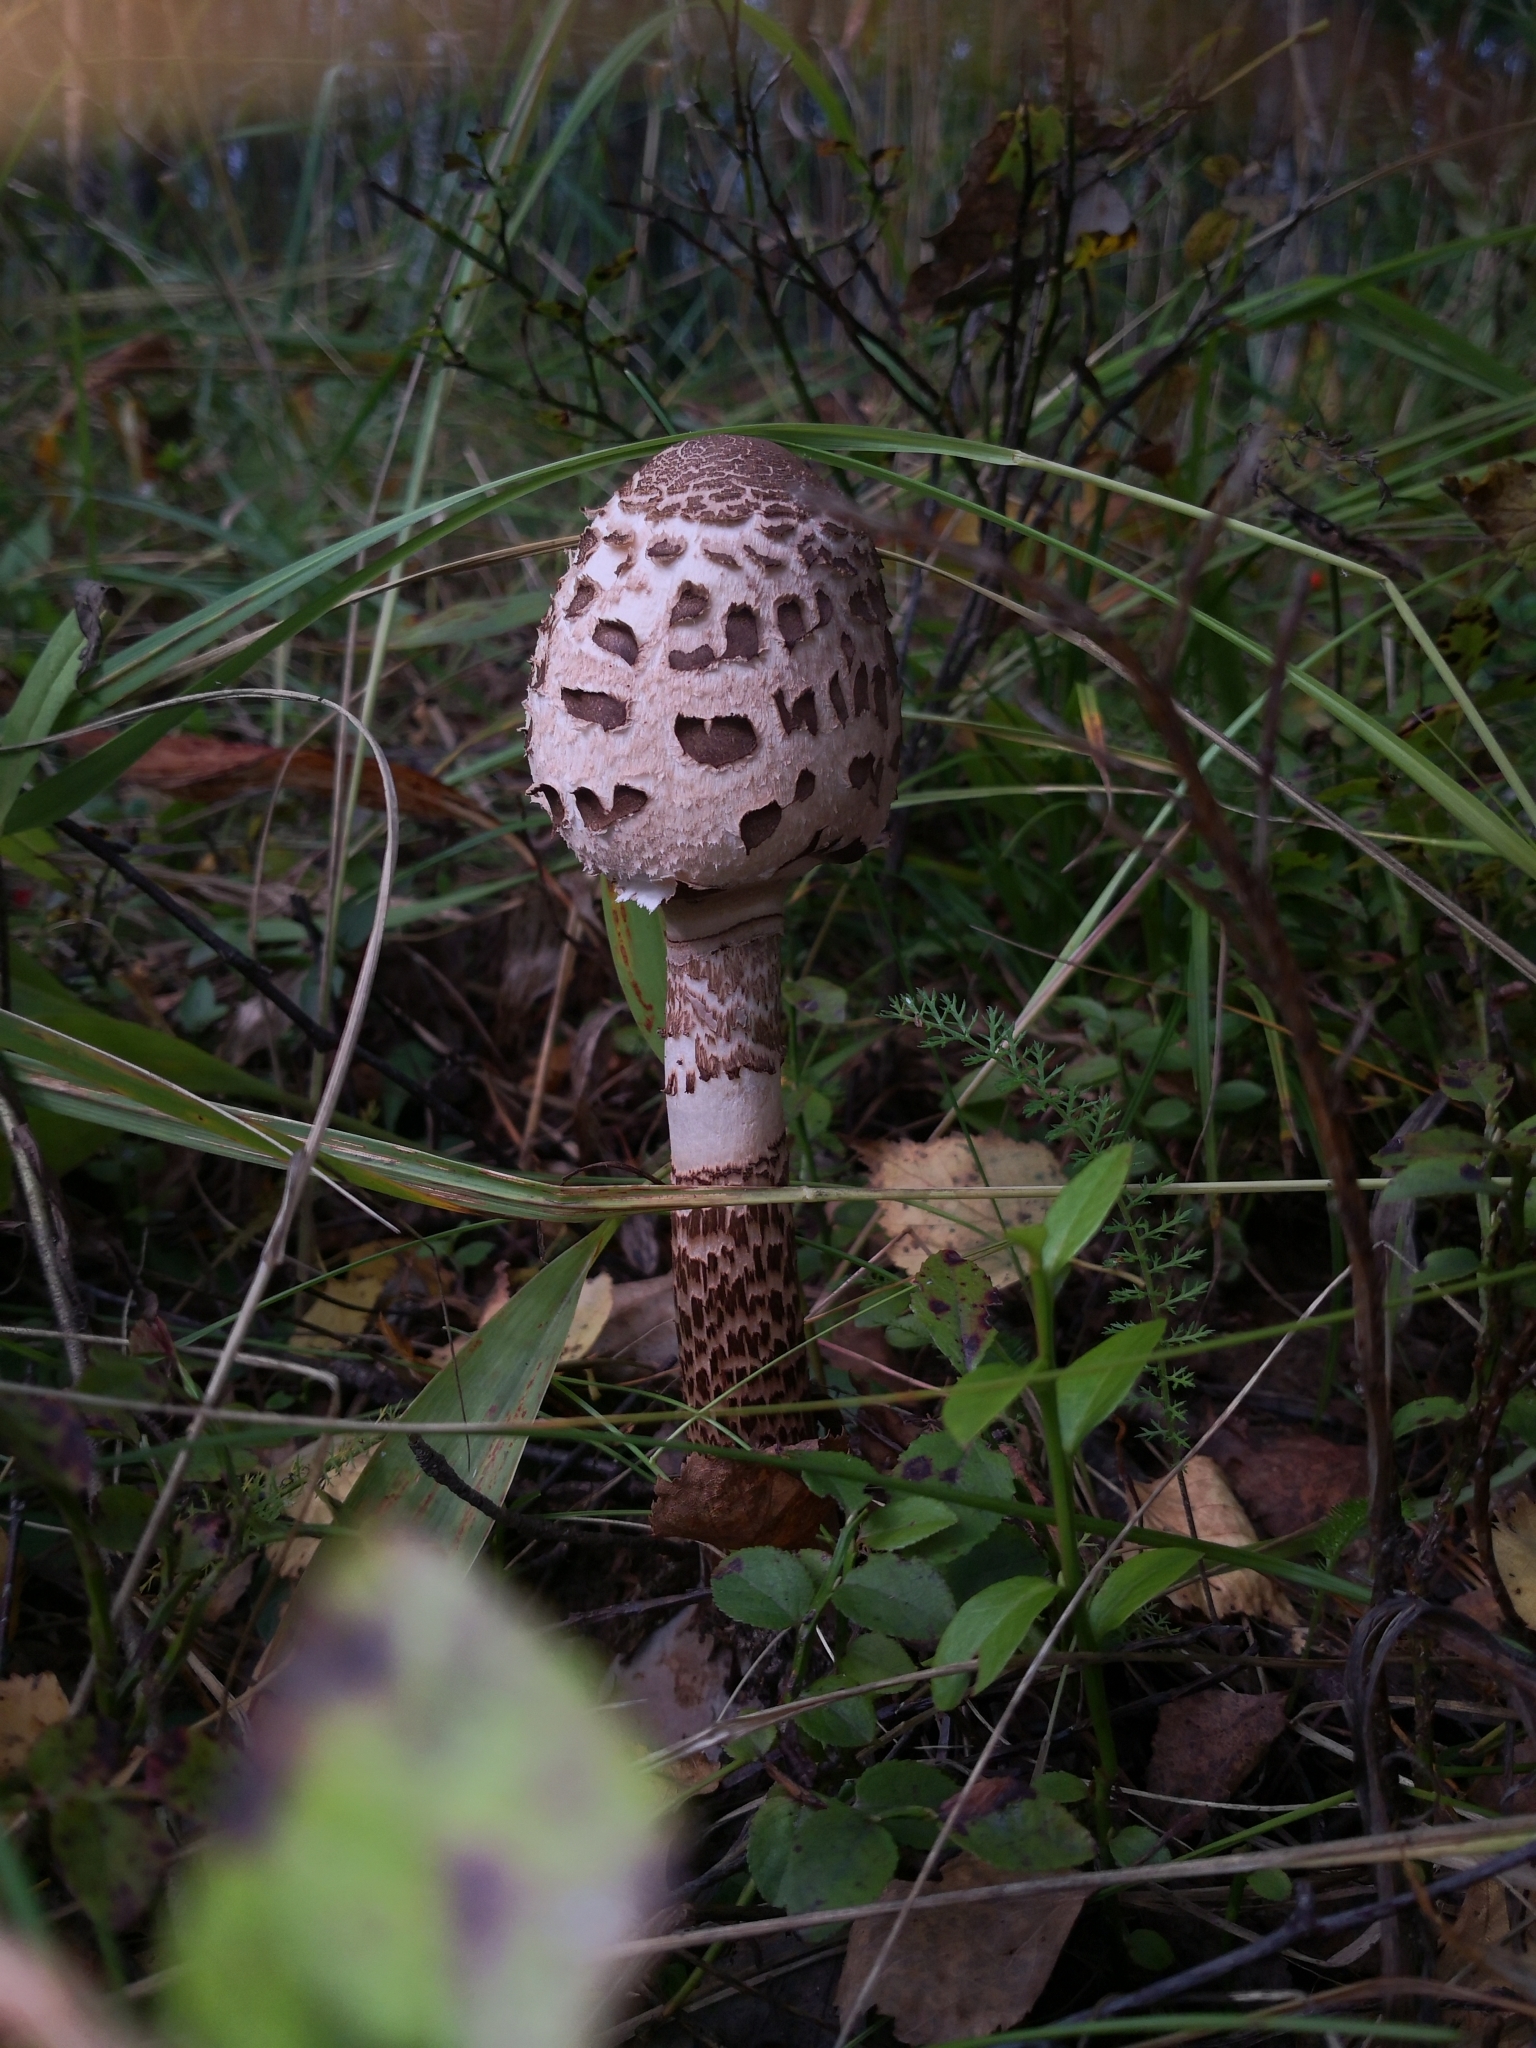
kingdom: Fungi
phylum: Basidiomycota
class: Agaricomycetes
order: Agaricales
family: Agaricaceae
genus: Macrolepiota
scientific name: Macrolepiota procera
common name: Parasol
